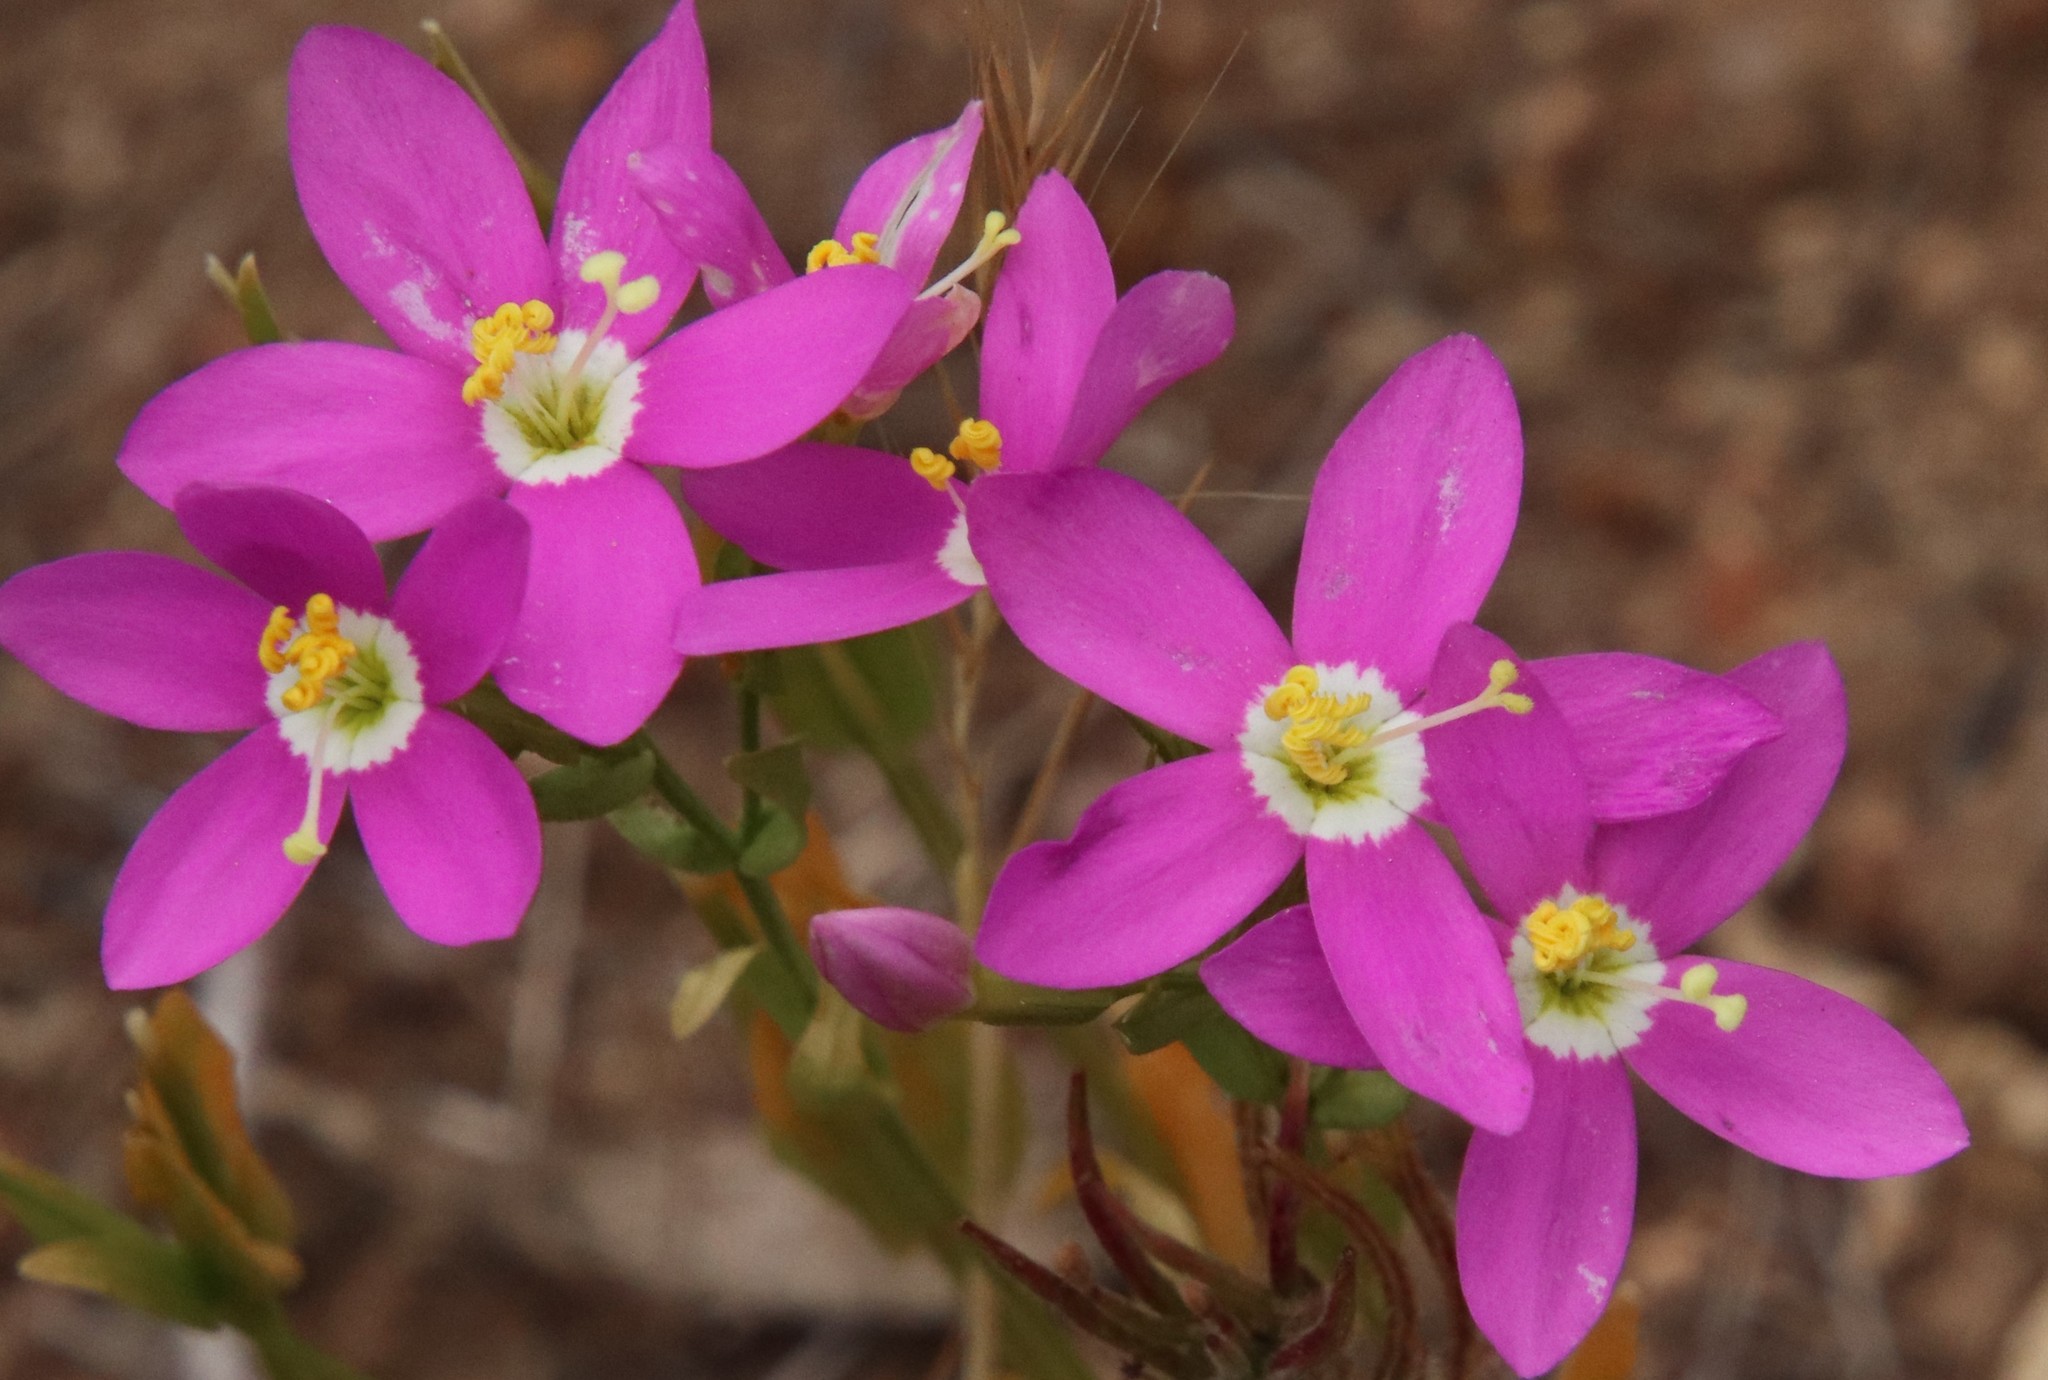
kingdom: Plantae
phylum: Tracheophyta
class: Magnoliopsida
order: Gentianales
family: Gentianaceae
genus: Zeltnera
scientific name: Zeltnera venusta
